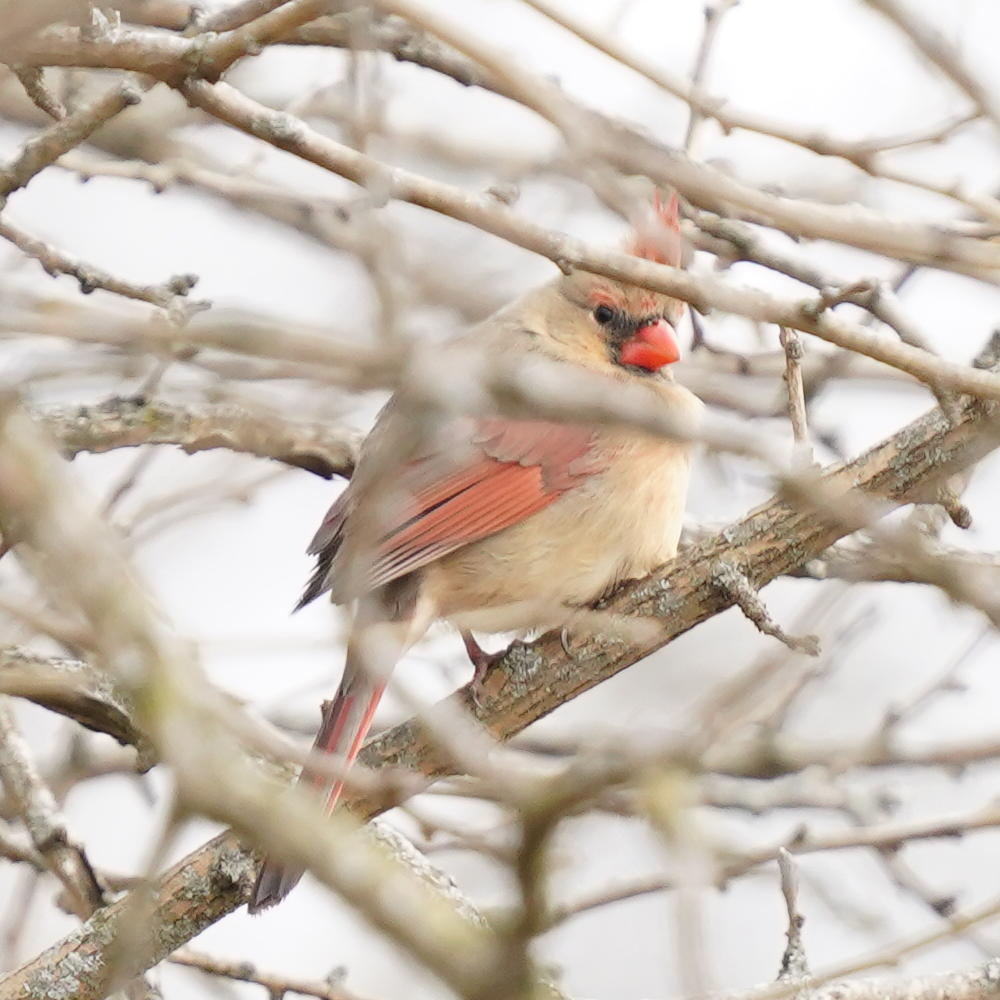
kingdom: Animalia
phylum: Chordata
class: Aves
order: Passeriformes
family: Cardinalidae
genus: Cardinalis
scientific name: Cardinalis cardinalis
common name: Northern cardinal
